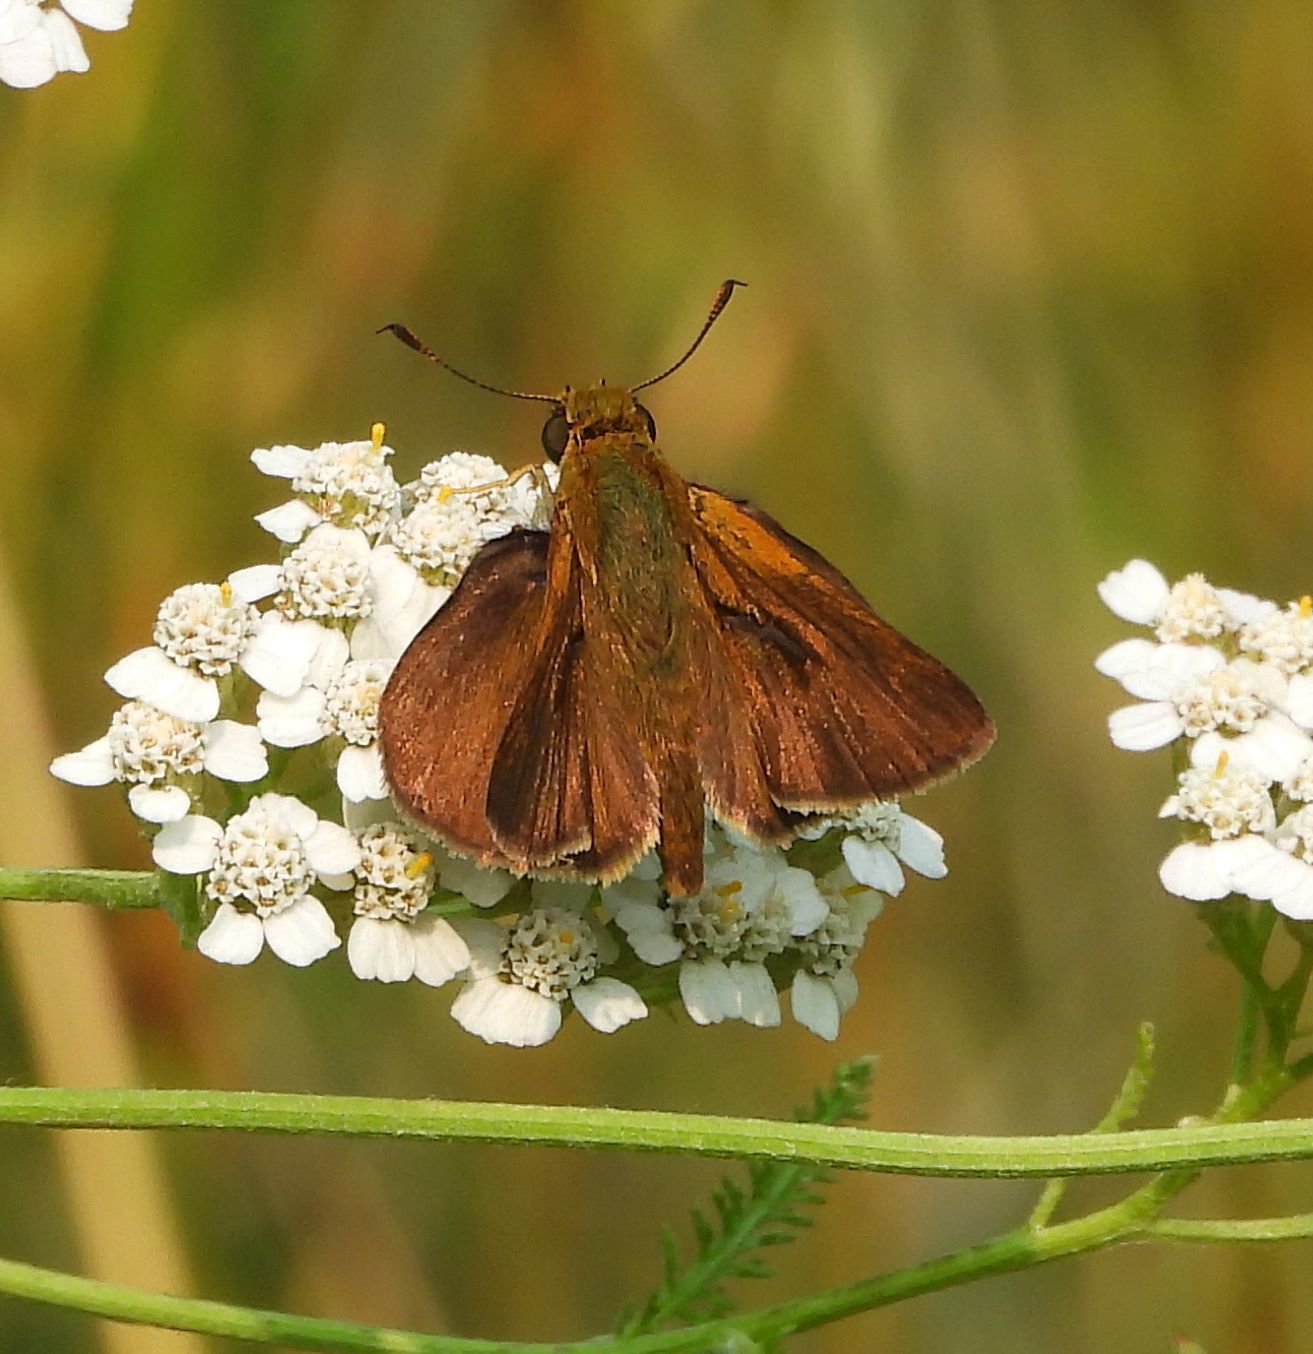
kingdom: Animalia
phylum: Arthropoda
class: Insecta
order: Lepidoptera
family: Hesperiidae
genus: Euphyes
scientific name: Euphyes vestris
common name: Dun skipper
